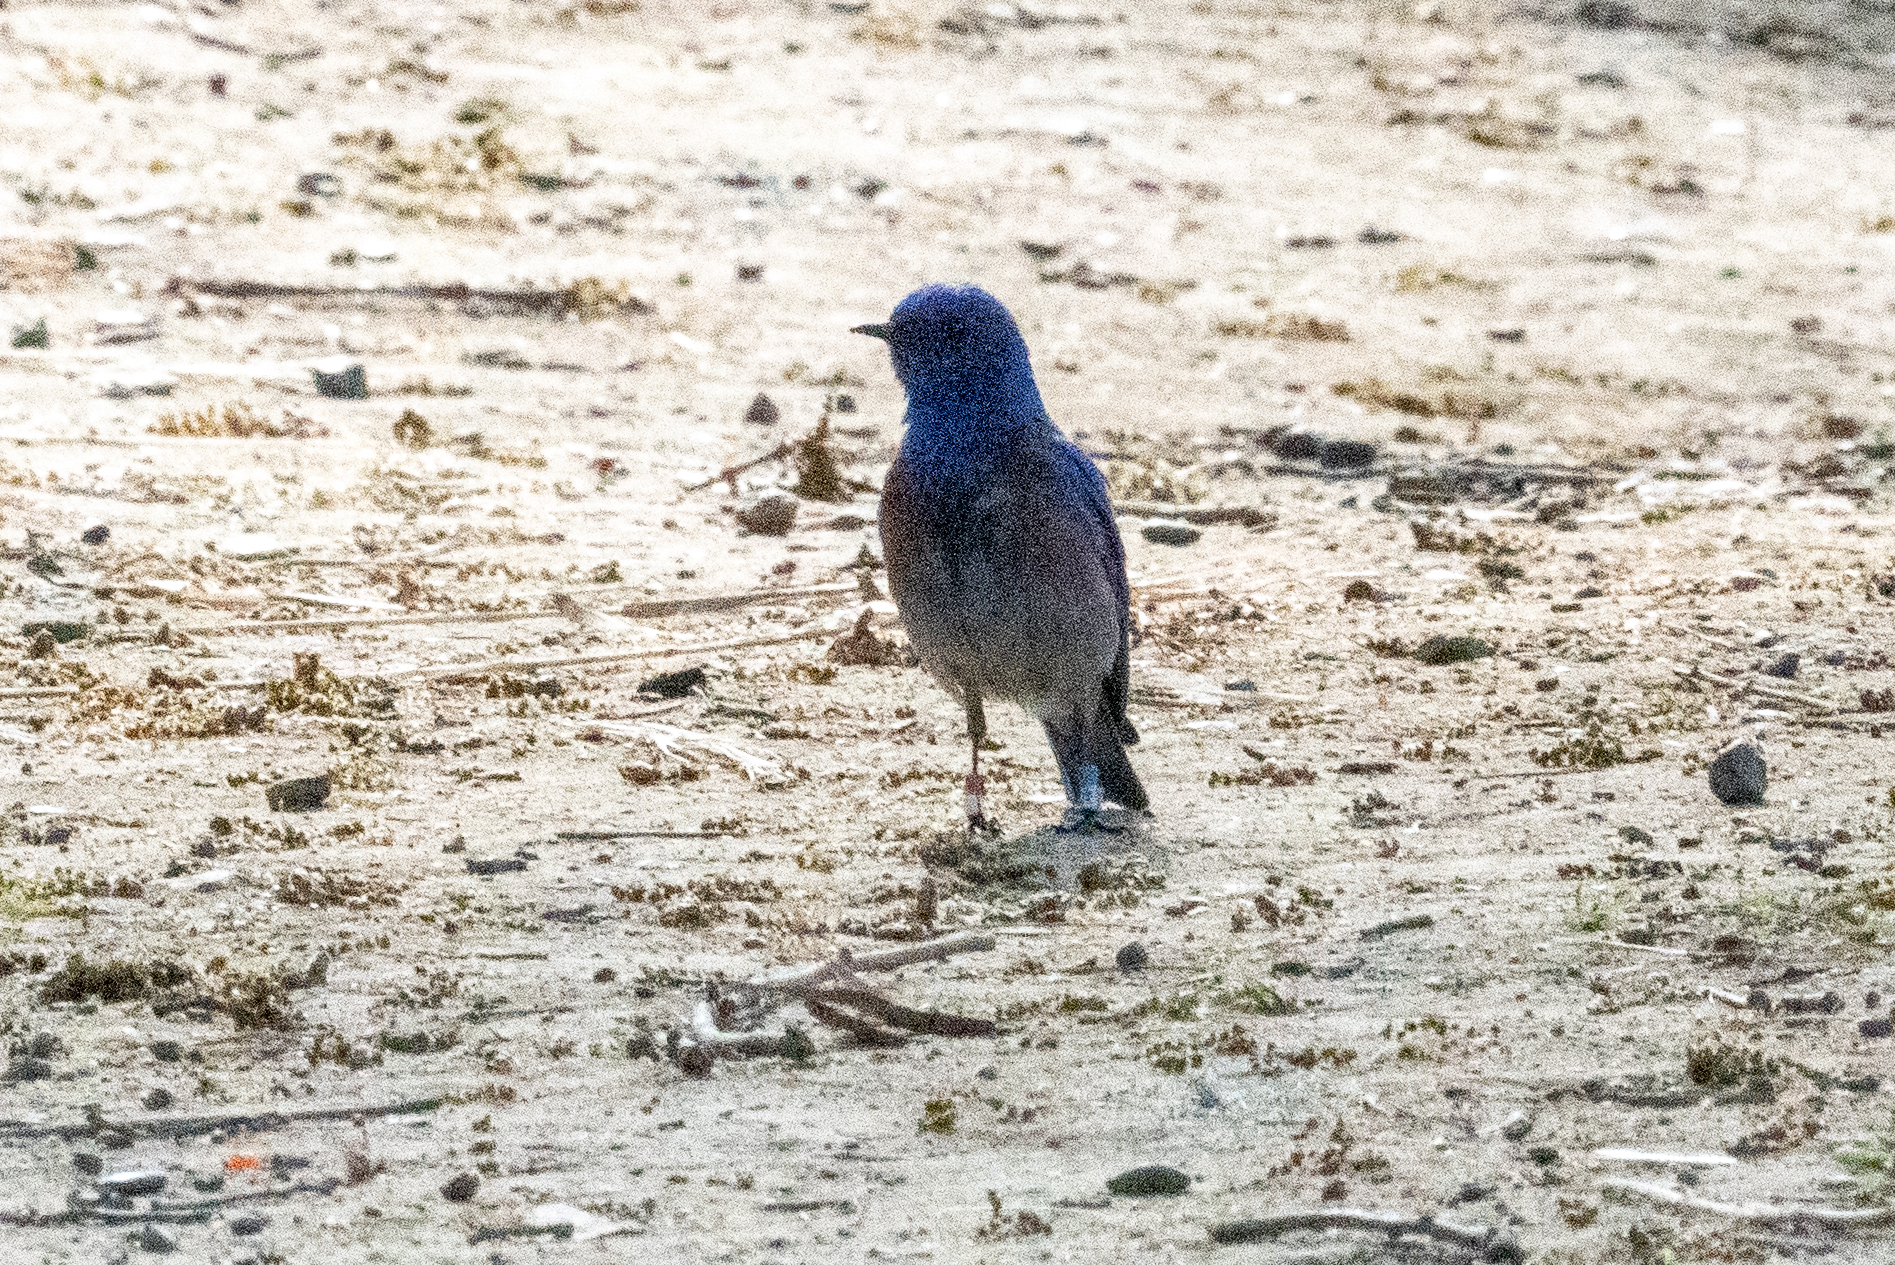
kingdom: Animalia
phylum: Chordata
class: Aves
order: Passeriformes
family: Turdidae
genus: Sialia
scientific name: Sialia mexicana
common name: Western bluebird
